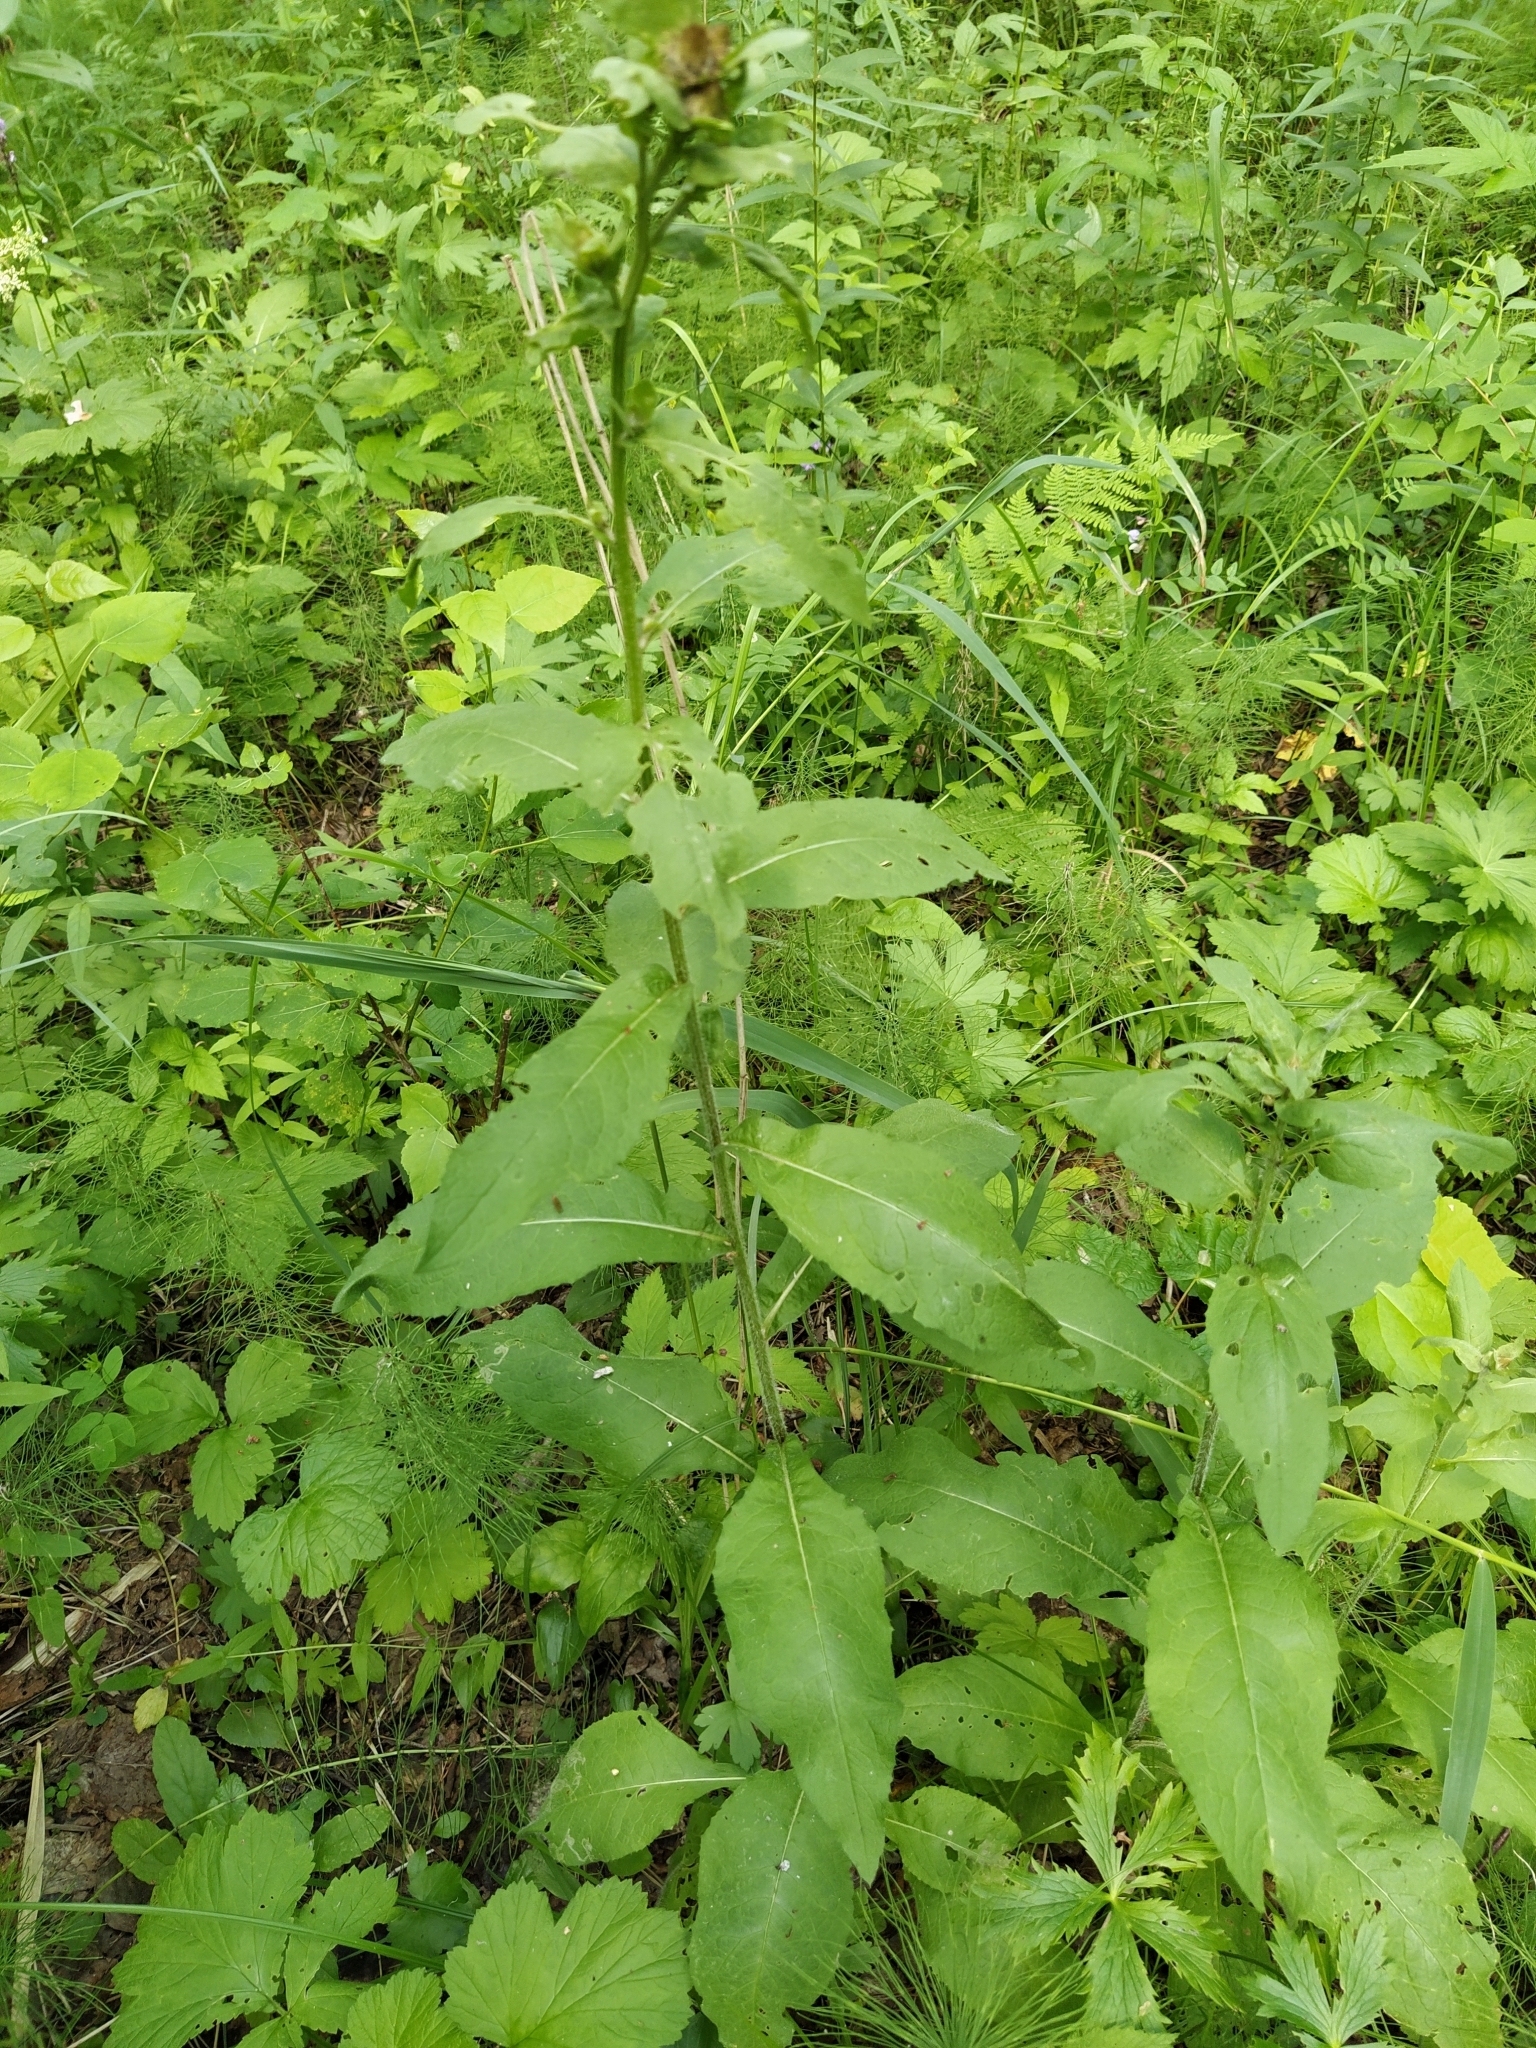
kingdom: Plantae
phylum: Tracheophyta
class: Magnoliopsida
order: Asterales
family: Asteraceae
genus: Centaurea
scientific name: Centaurea pseudophrygia
